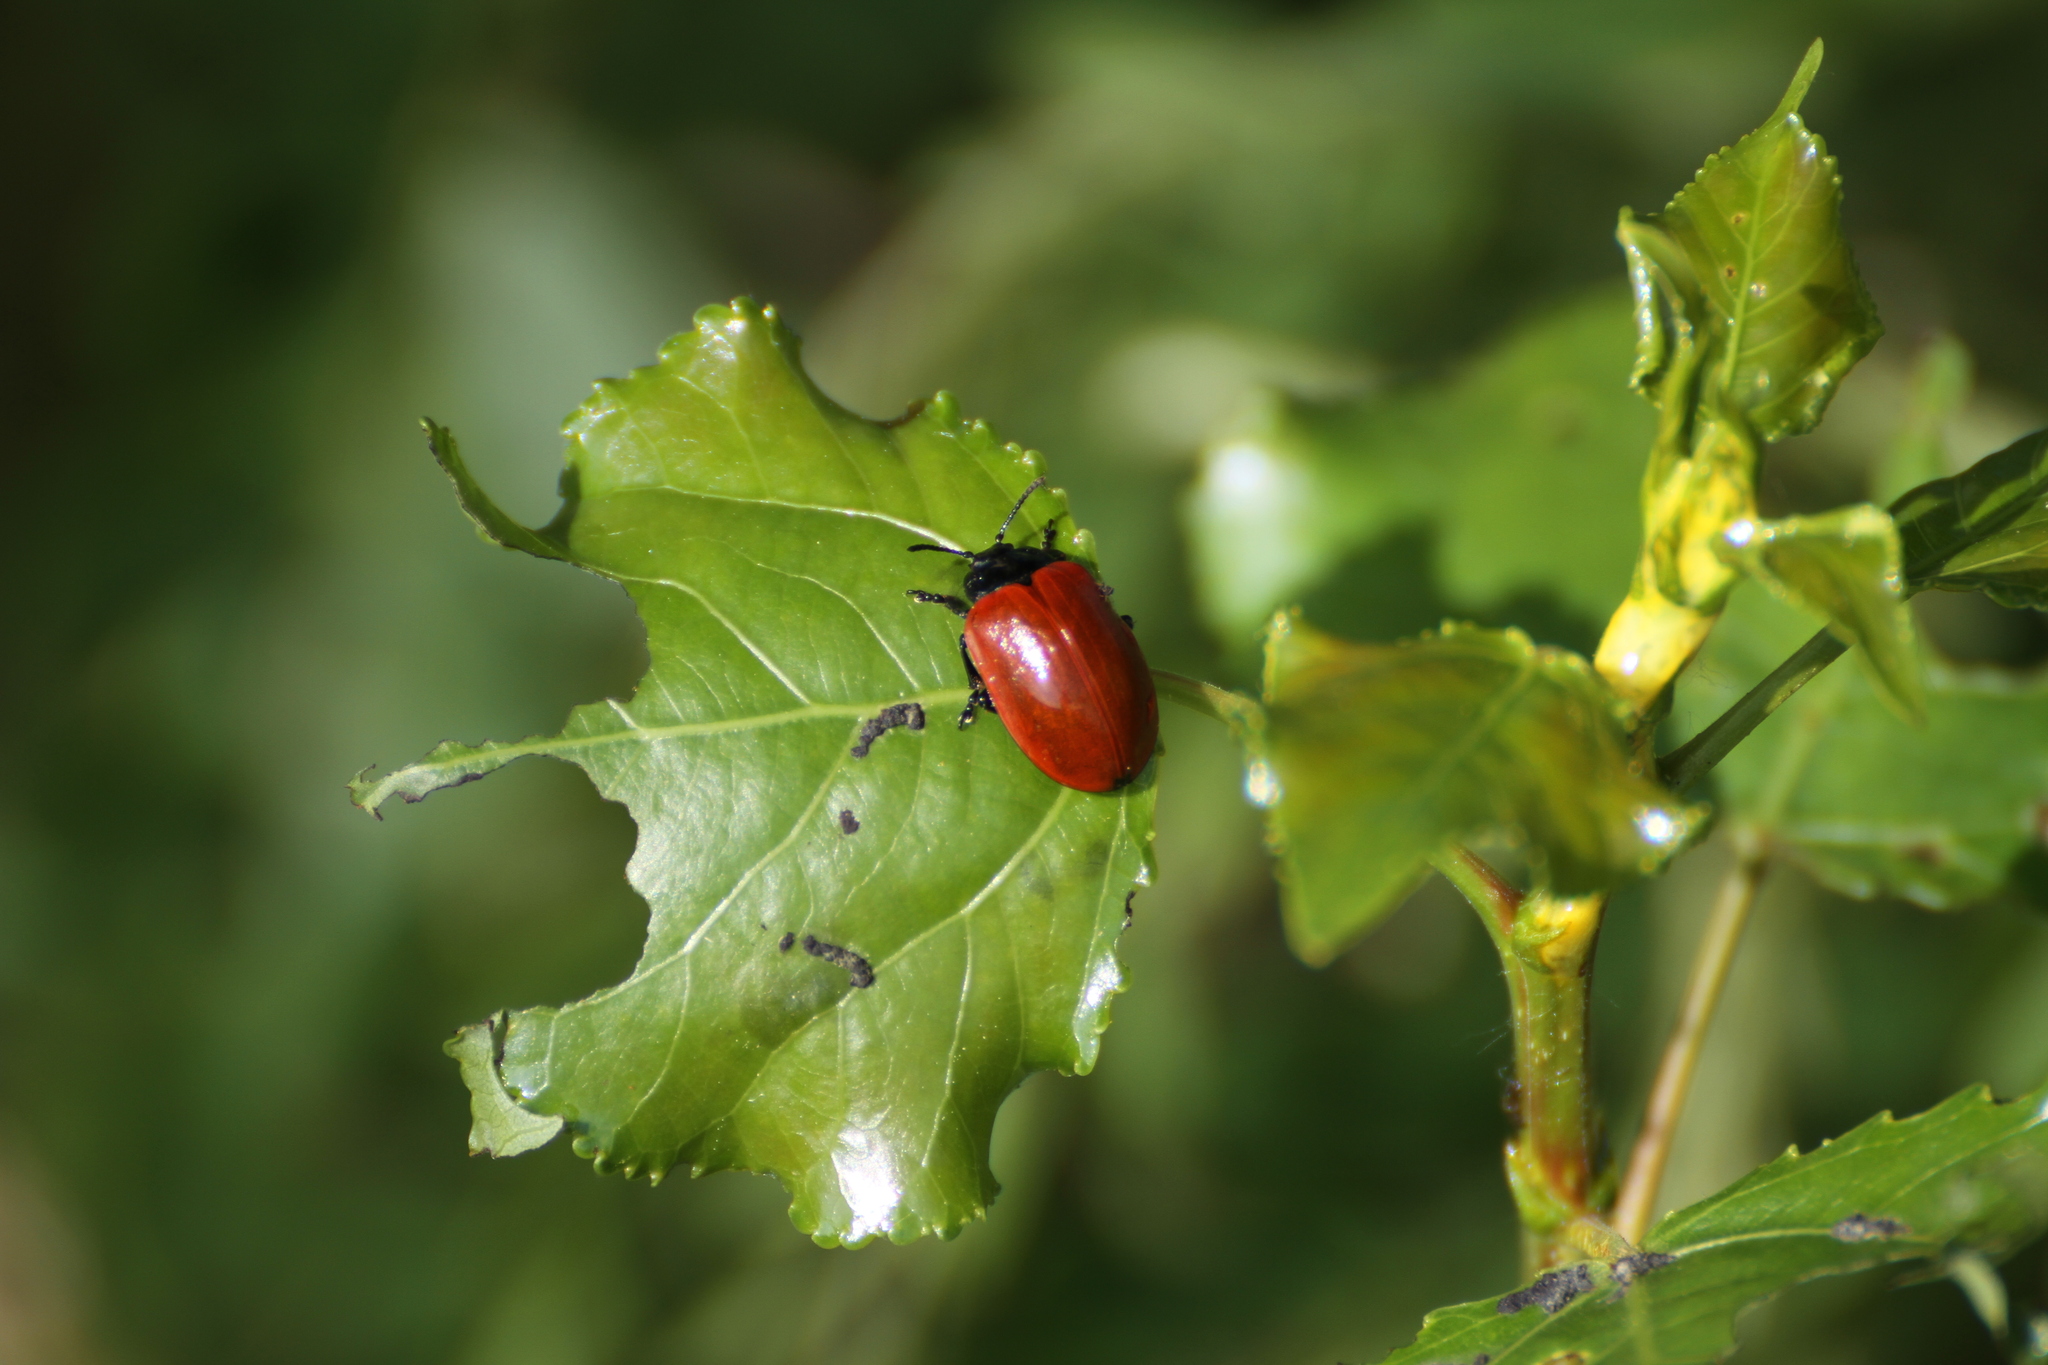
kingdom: Animalia
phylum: Arthropoda
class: Insecta
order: Coleoptera
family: Chrysomelidae
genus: Chrysomela
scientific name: Chrysomela populi
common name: Red poplar leaf beetle
